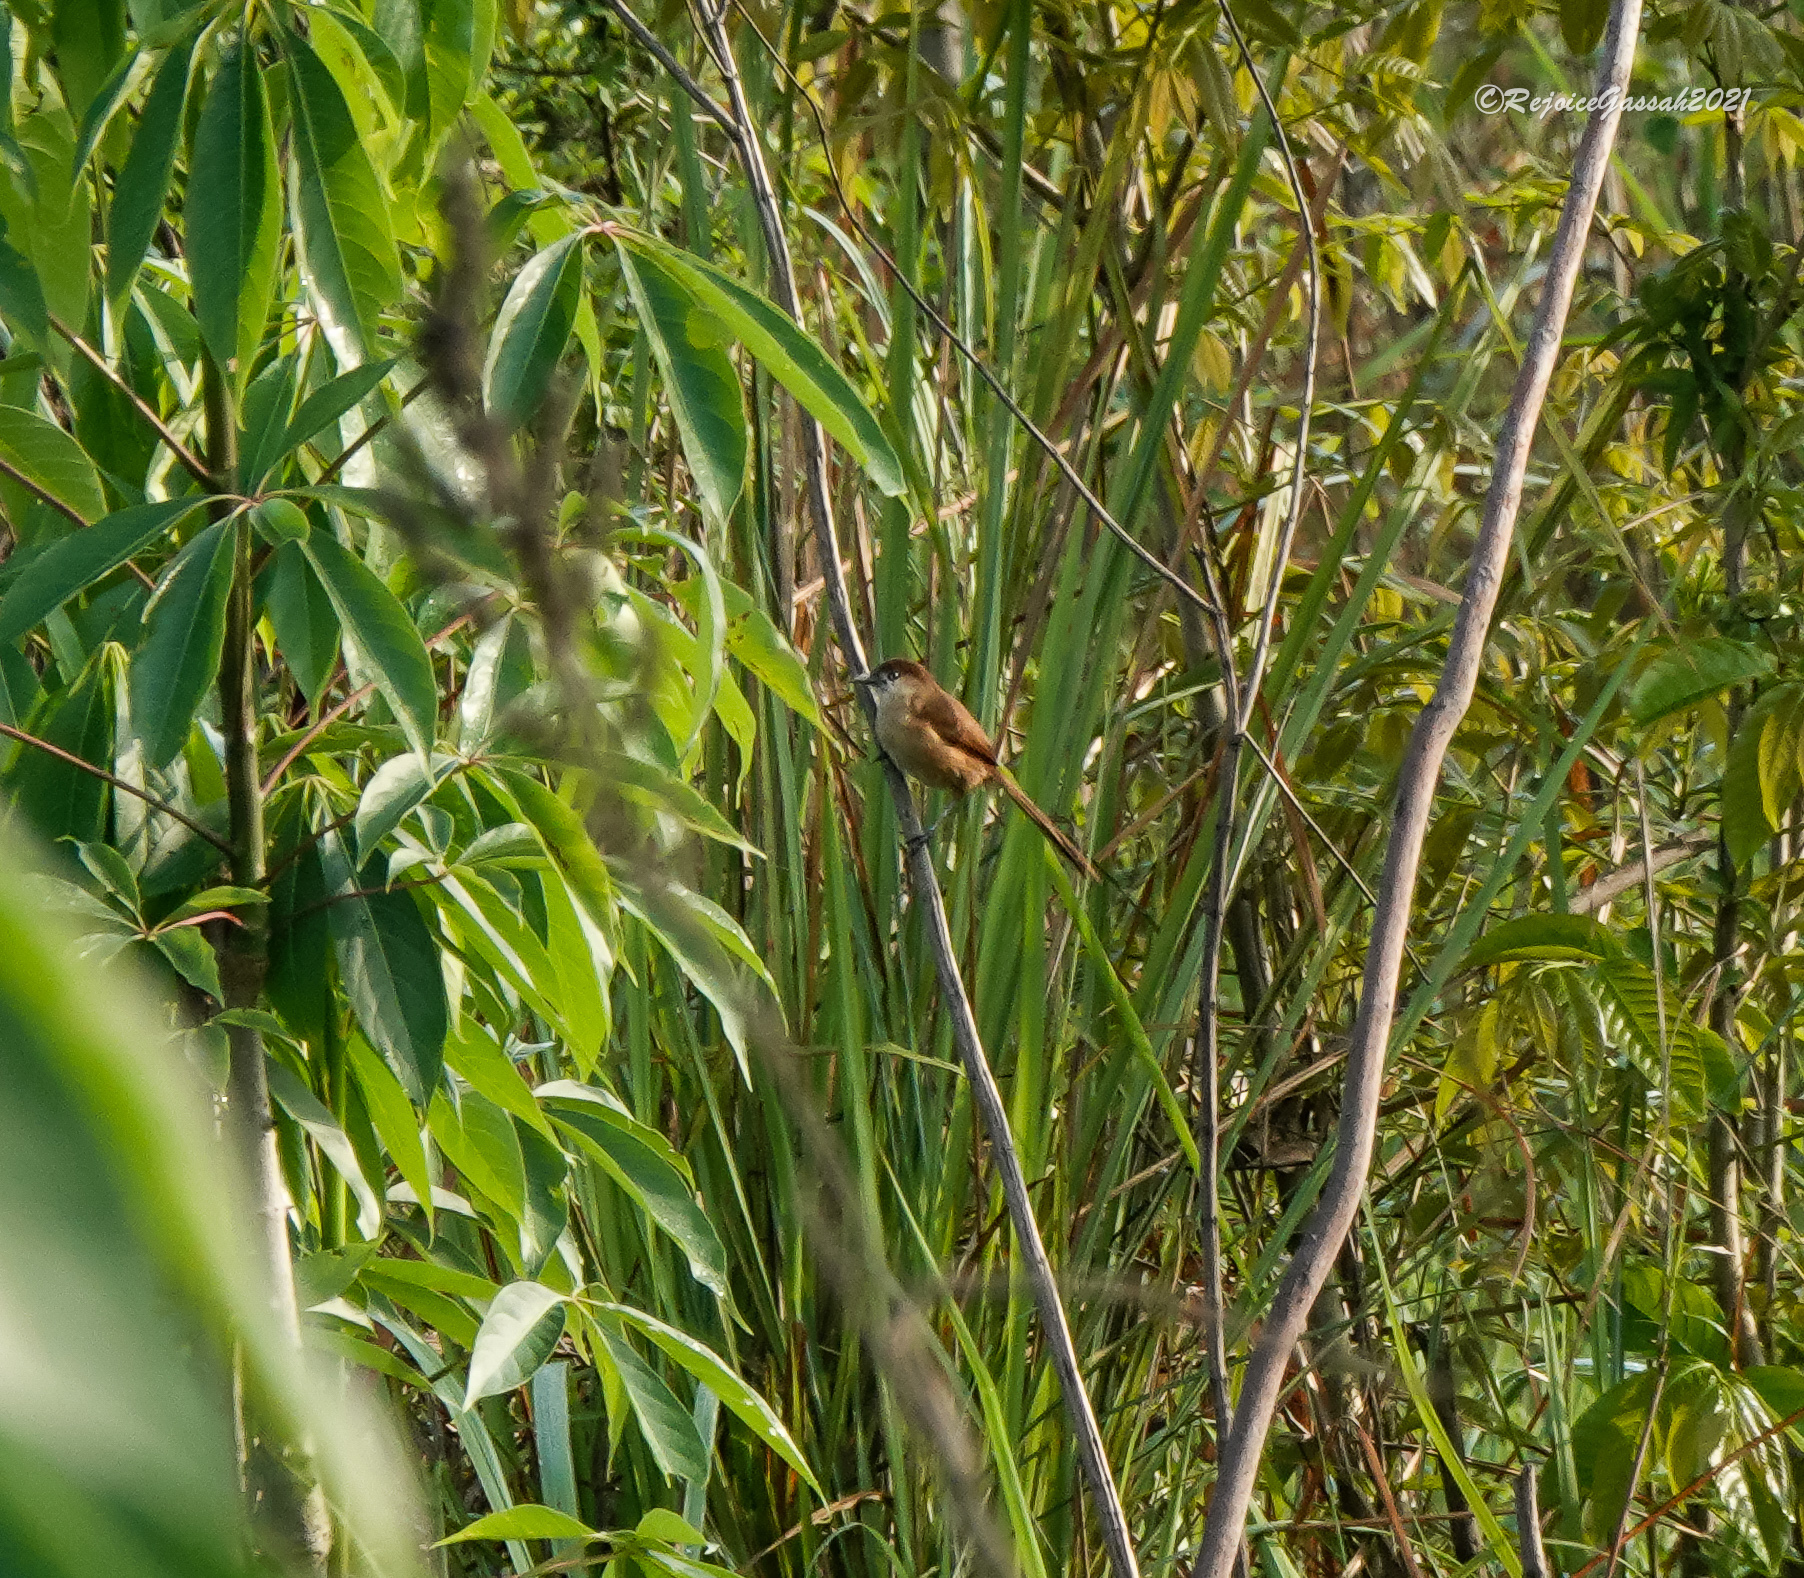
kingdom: Animalia
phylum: Chordata
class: Aves
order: Passeriformes
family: Leiothrichidae
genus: Argya
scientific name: Argya longirostris
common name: Slender-billed babbler
